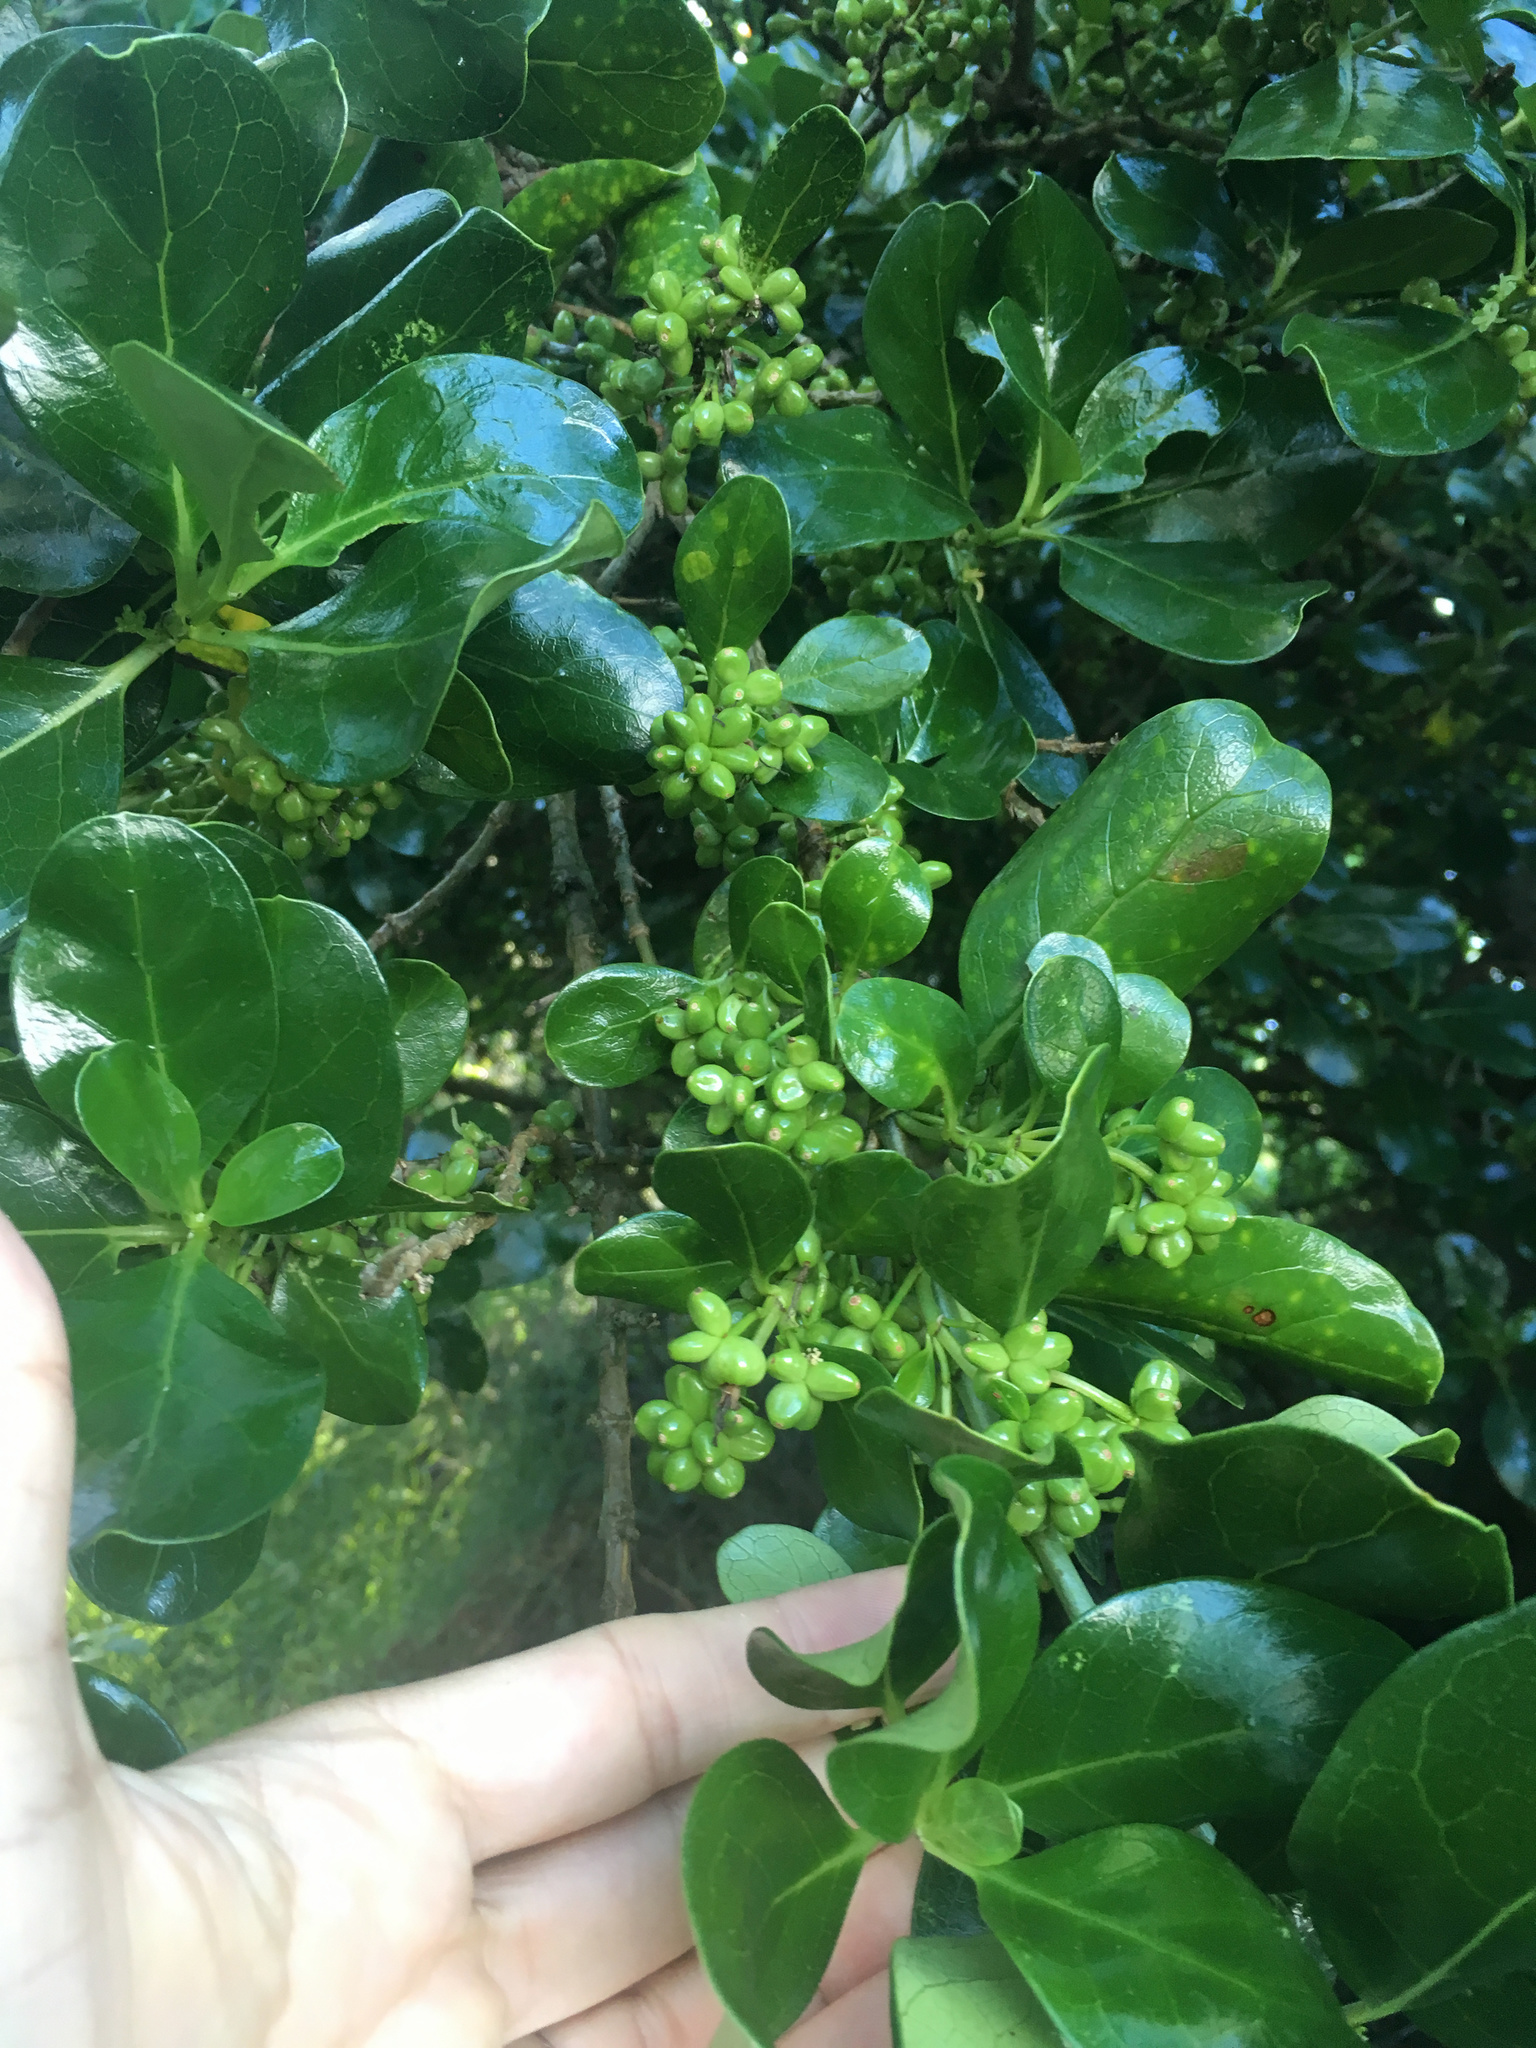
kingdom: Plantae
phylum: Tracheophyta
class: Magnoliopsida
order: Gentianales
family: Rubiaceae
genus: Coprosma
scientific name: Coprosma repens
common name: Tree bedstraw
